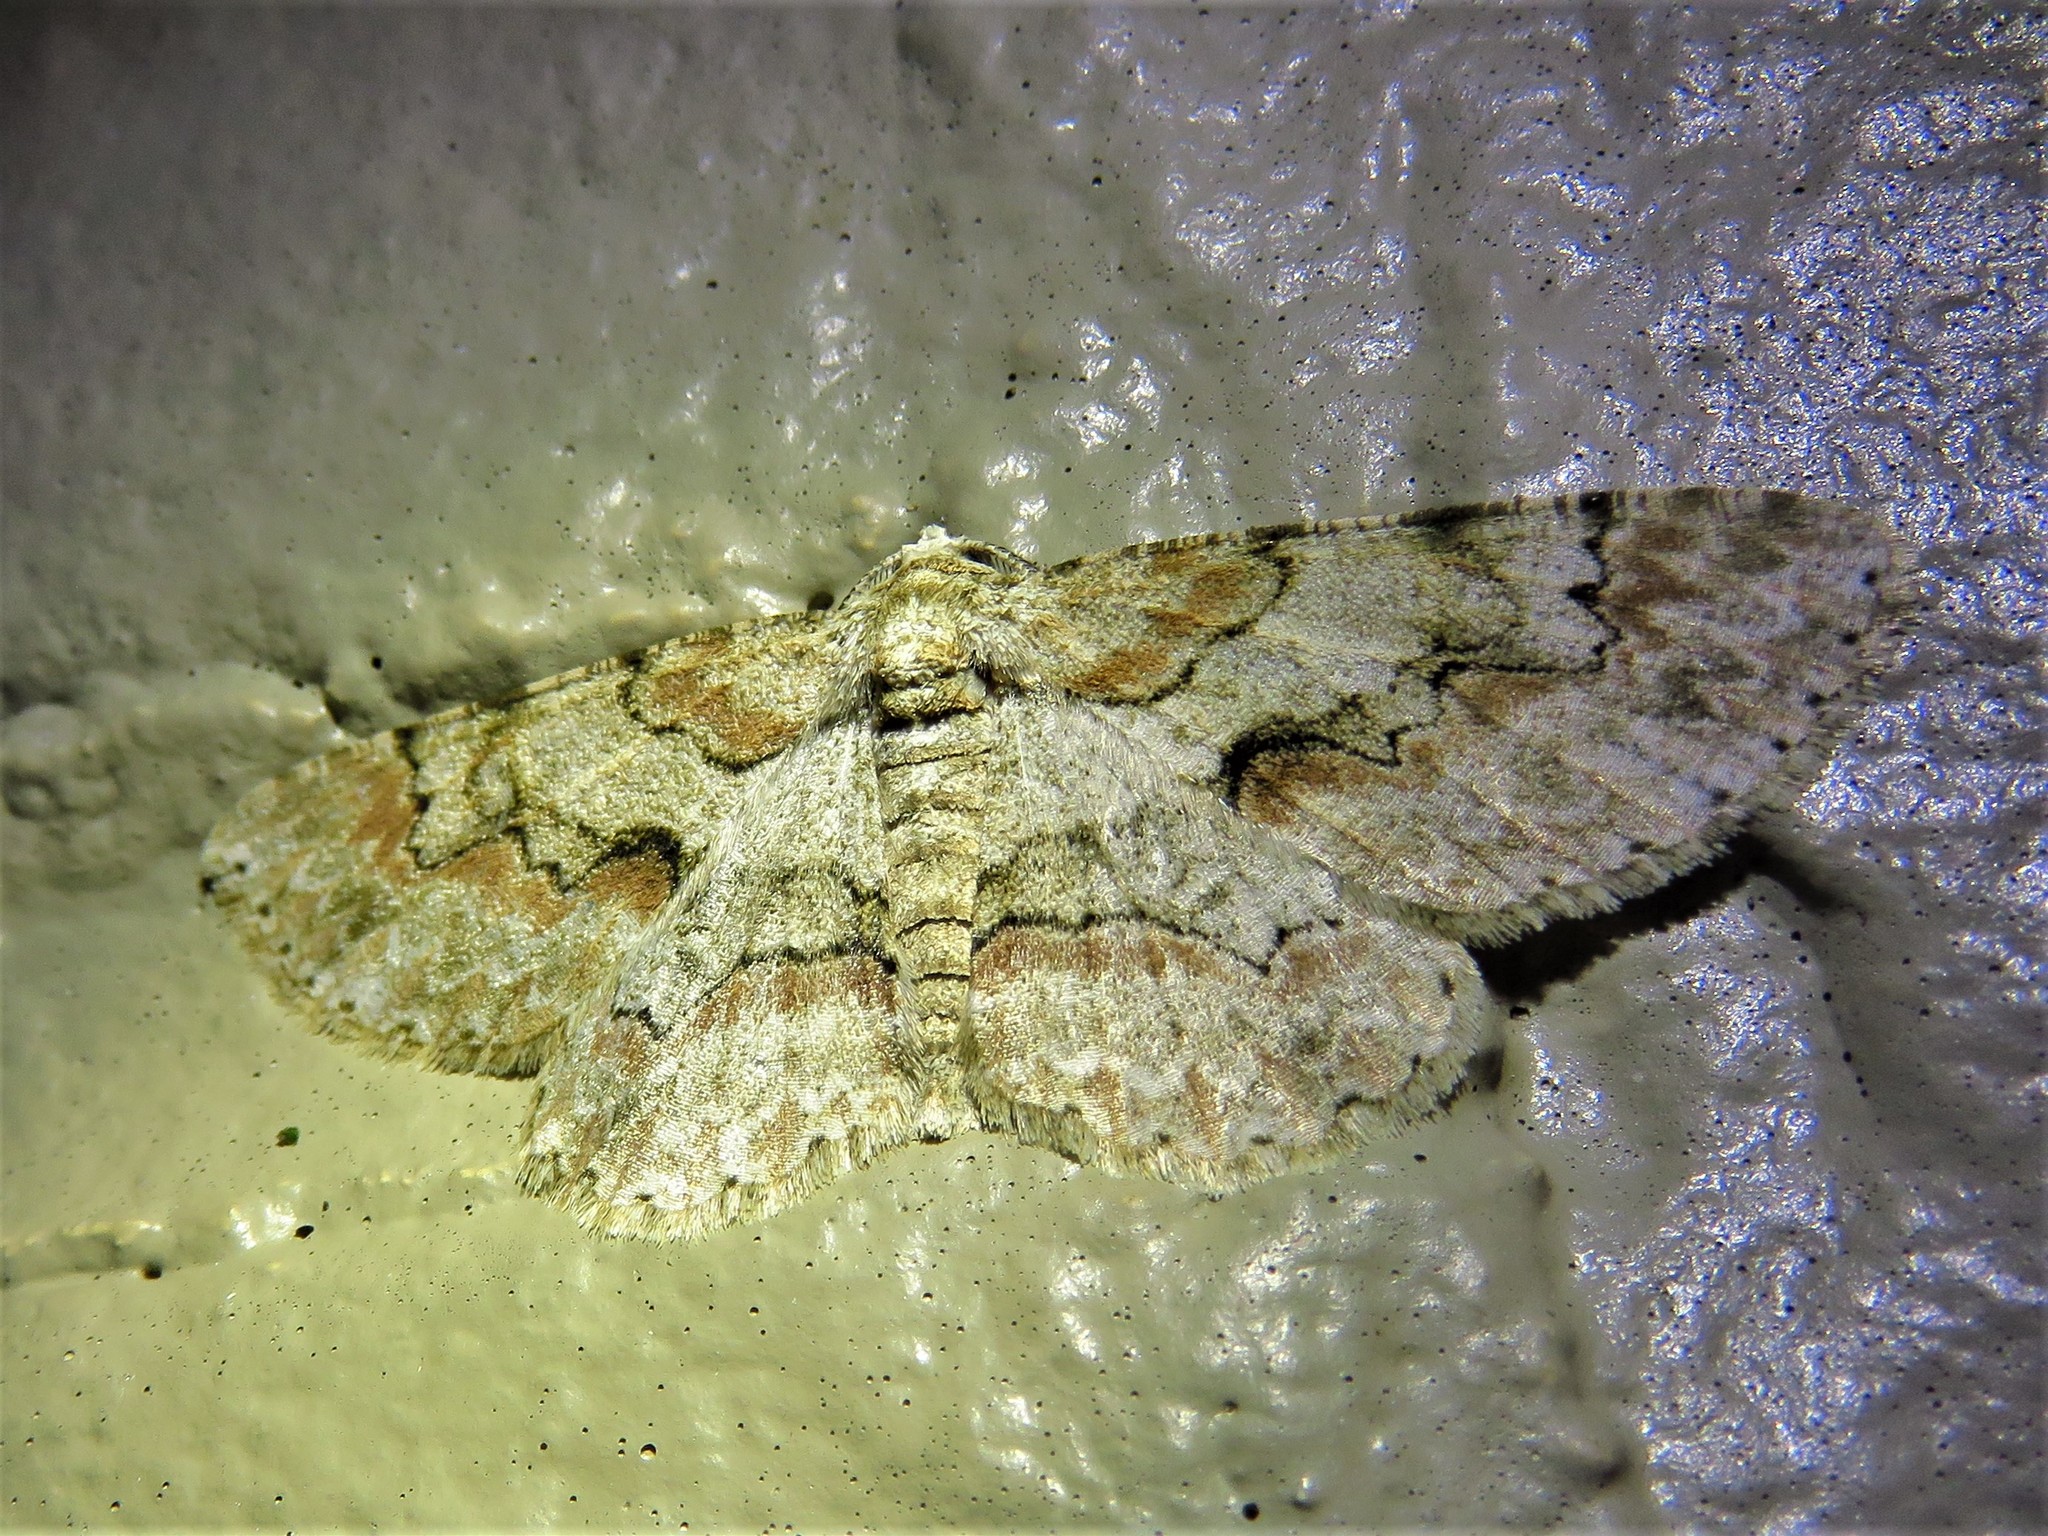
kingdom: Animalia
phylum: Arthropoda
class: Insecta
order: Lepidoptera
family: Geometridae
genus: Iridopsis
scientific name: Iridopsis defectaria
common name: Brown-shaded gray
